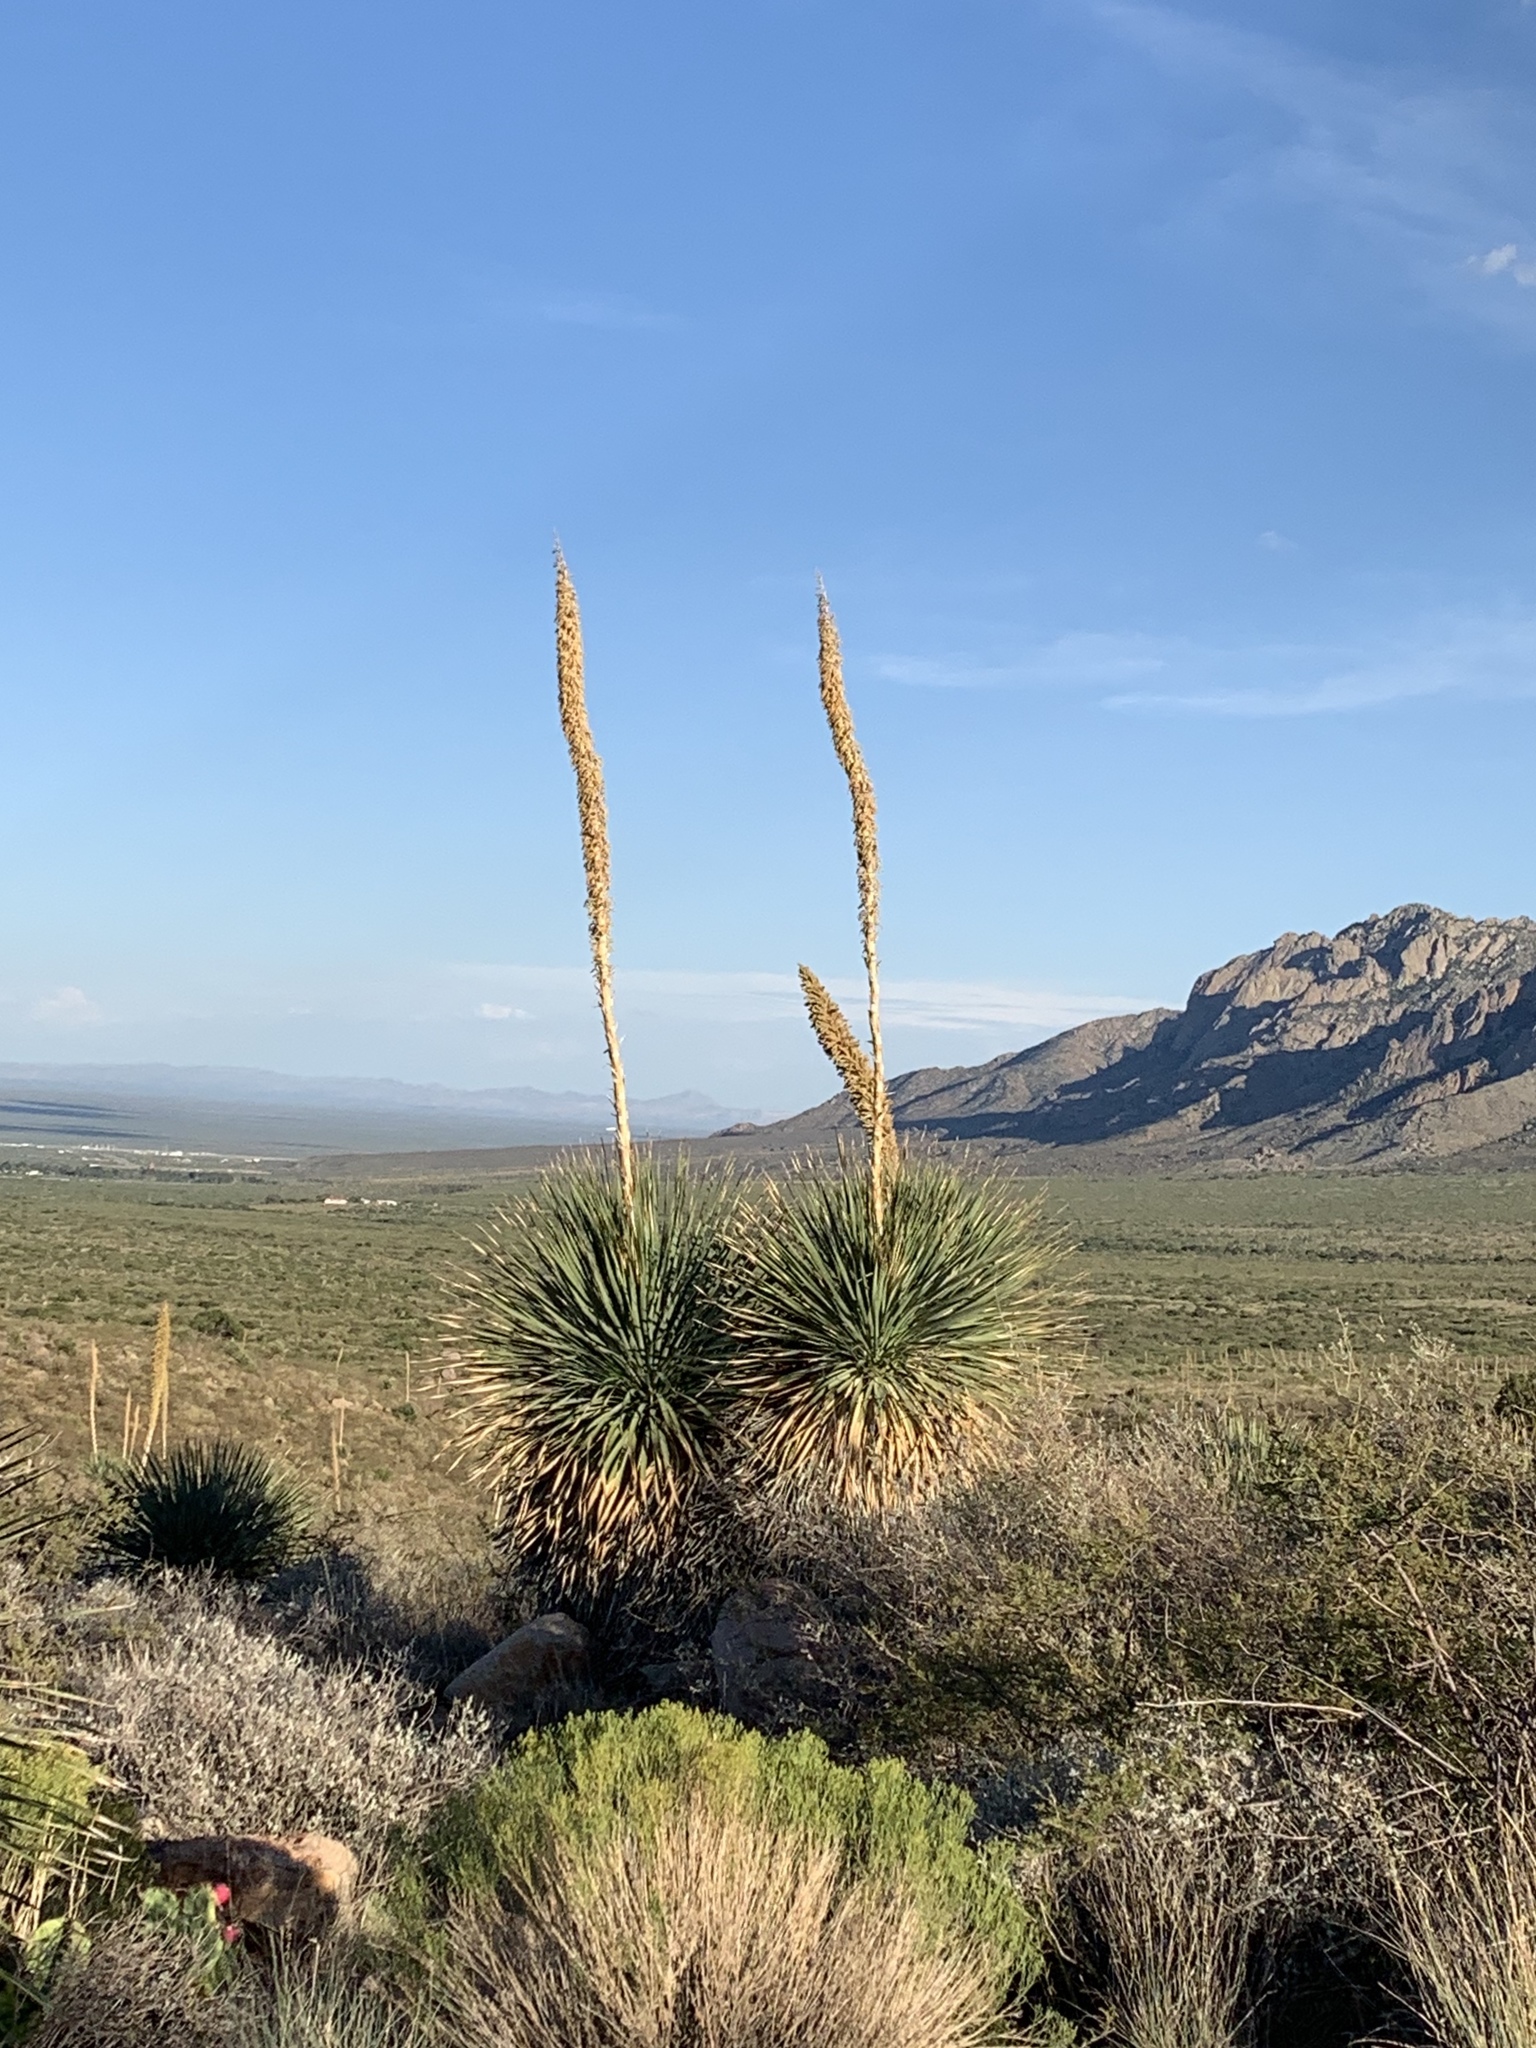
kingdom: Plantae
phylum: Tracheophyta
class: Liliopsida
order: Asparagales
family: Asparagaceae
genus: Dasylirion
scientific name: Dasylirion wheeleri
